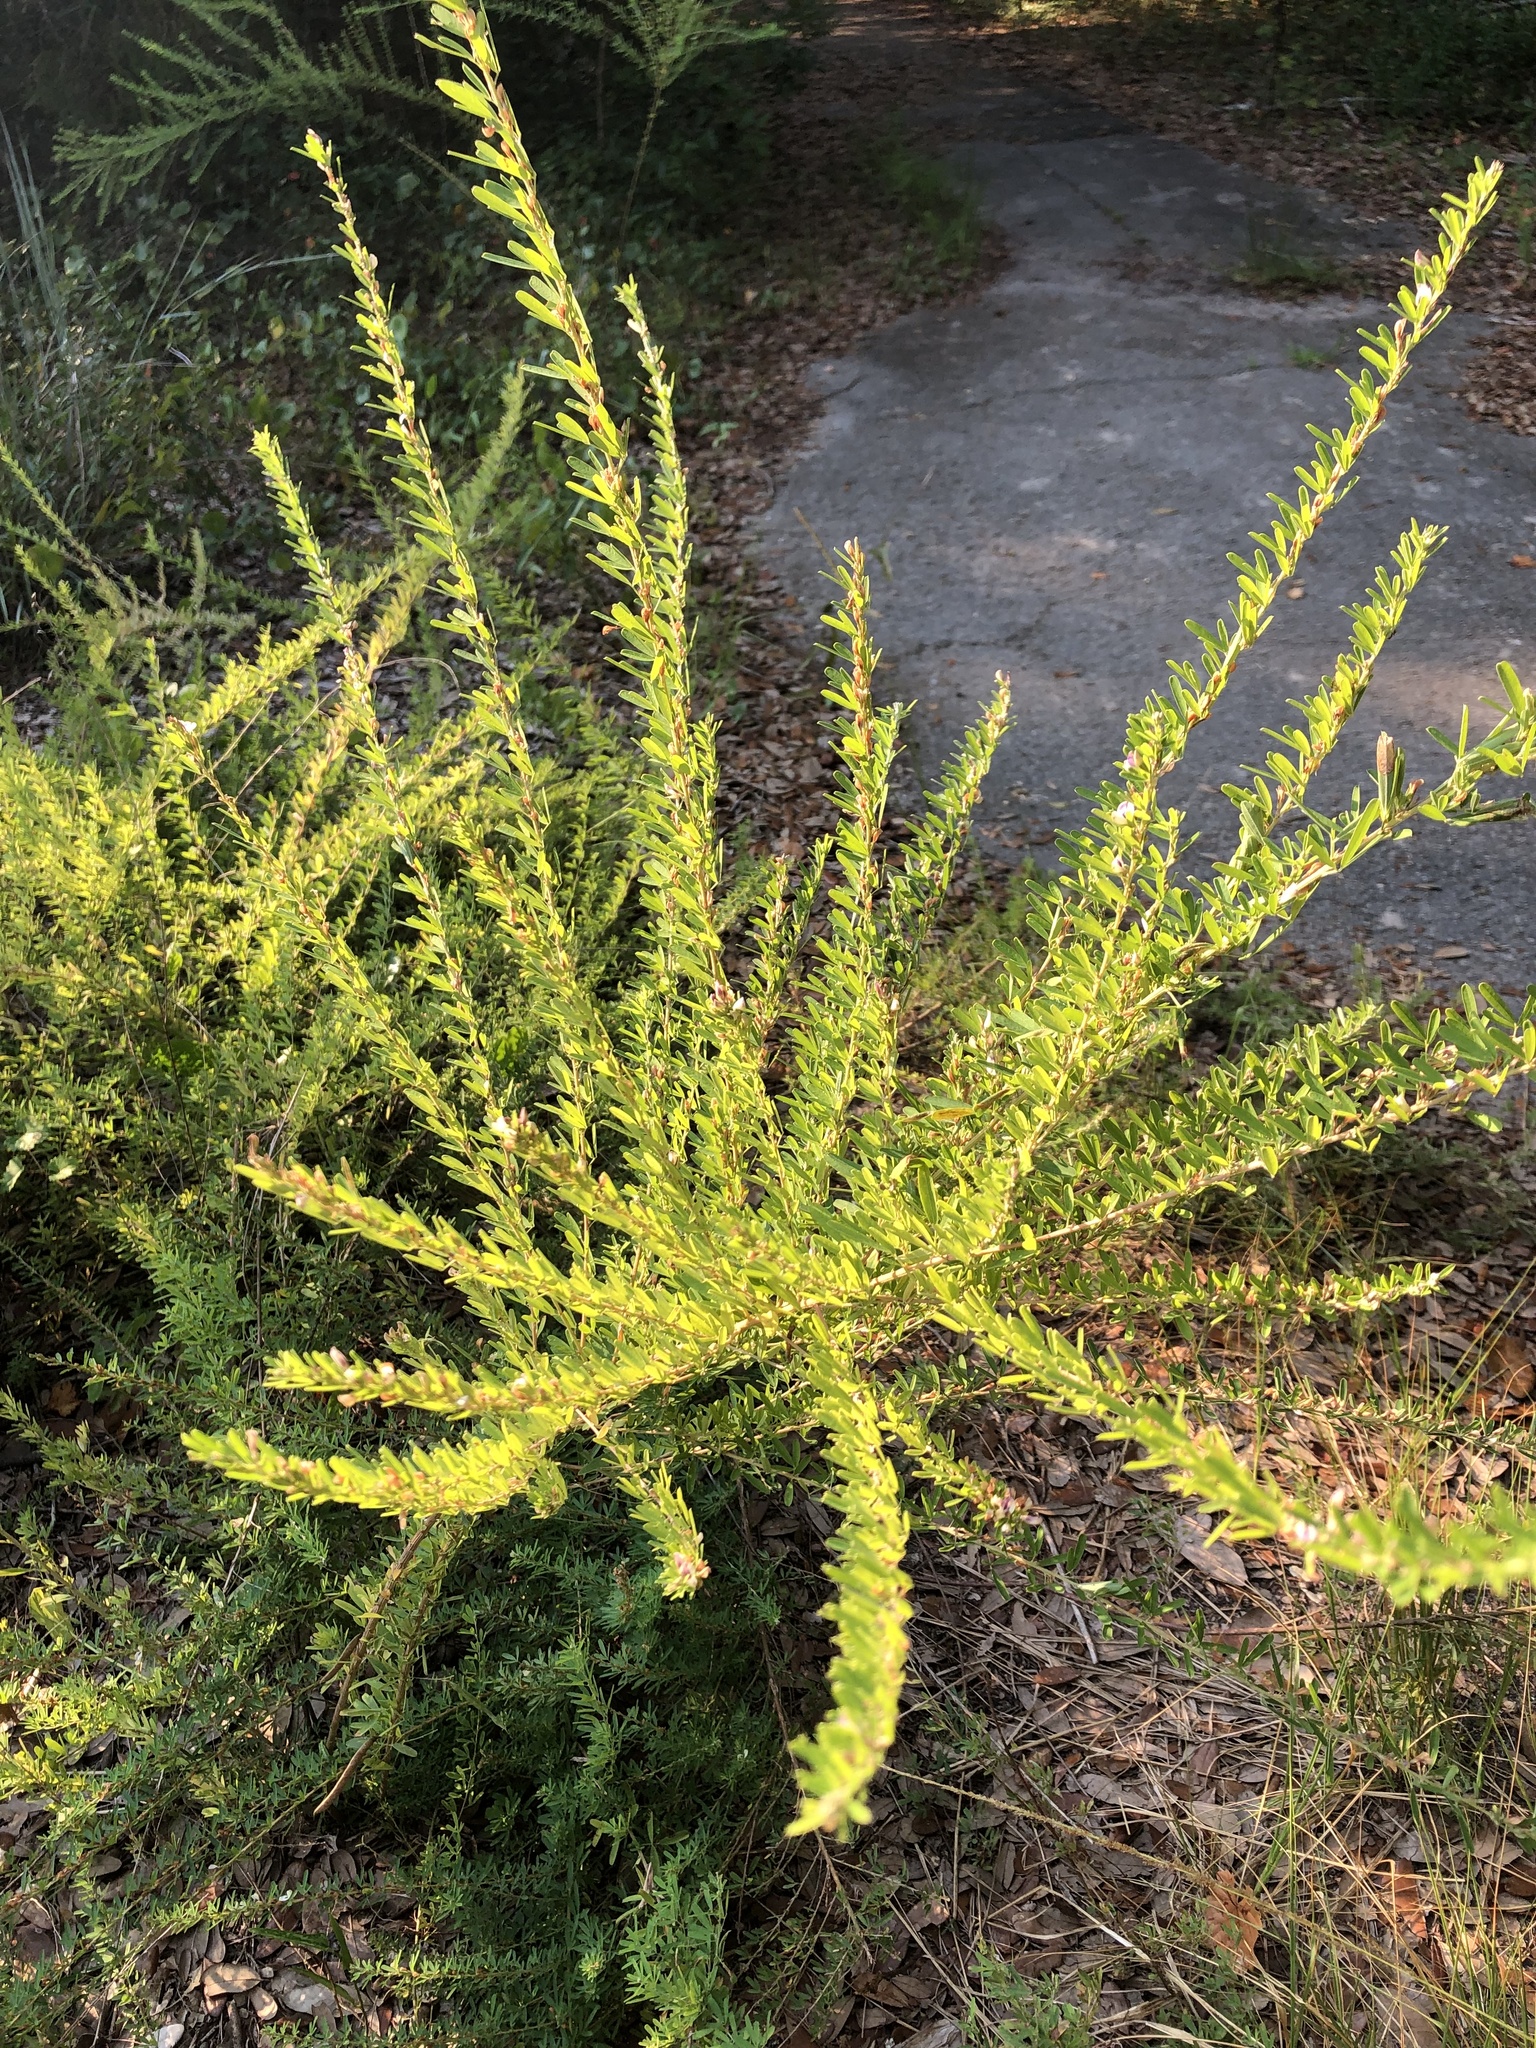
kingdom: Plantae
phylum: Tracheophyta
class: Magnoliopsida
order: Fabales
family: Fabaceae
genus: Lespedeza
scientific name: Lespedeza cuneata
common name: Chinese bush-clover
